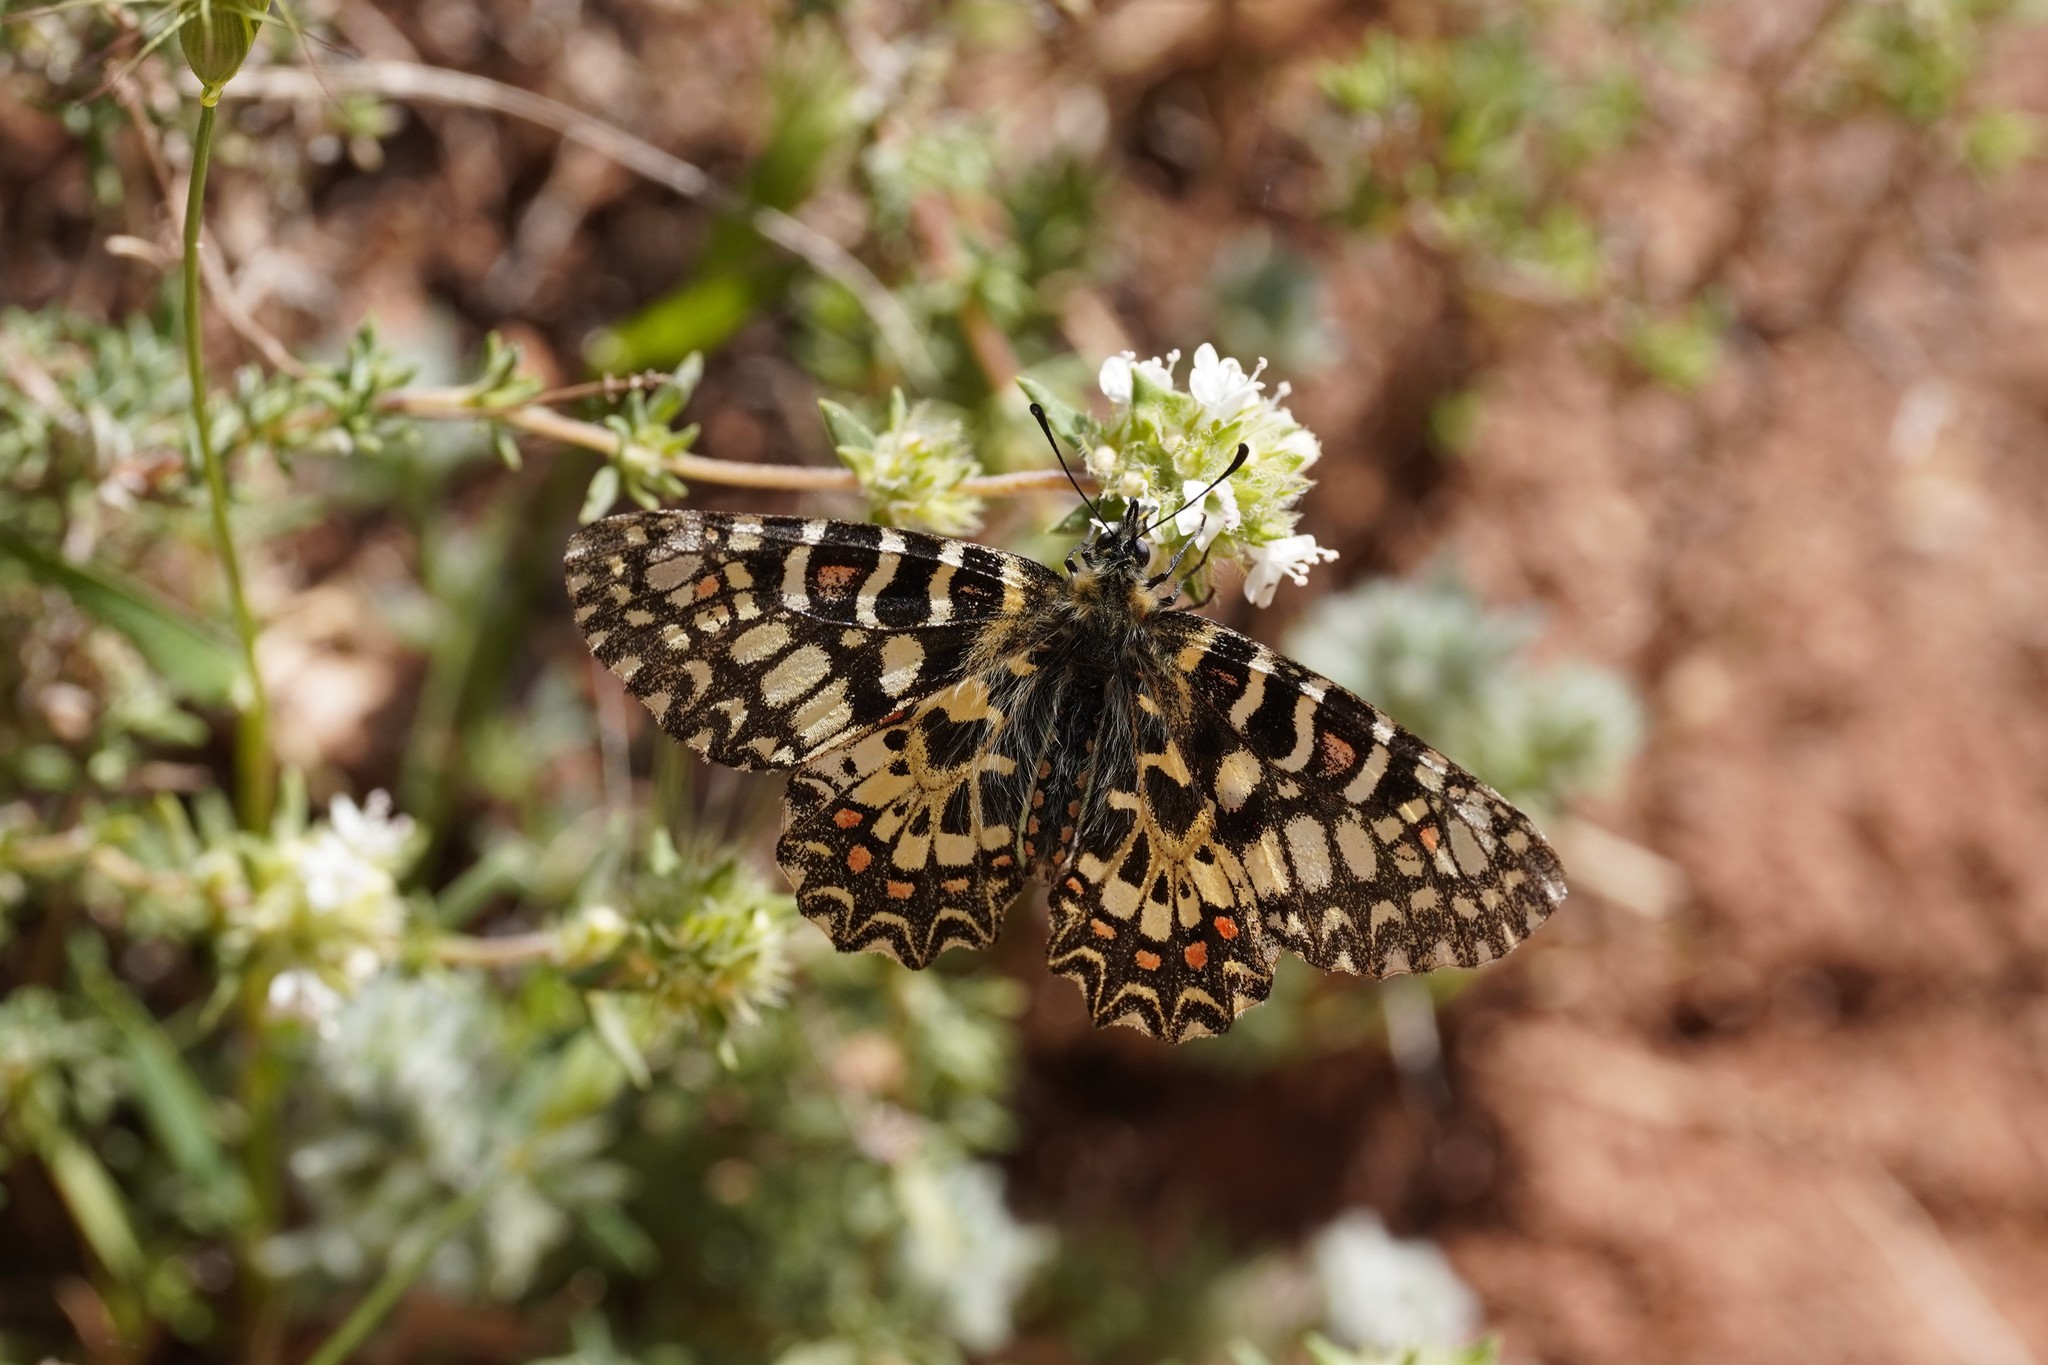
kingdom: Animalia
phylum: Arthropoda
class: Insecta
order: Lepidoptera
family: Papilionidae
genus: Zerynthia
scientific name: Zerynthia rumina
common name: Spanish festoon
